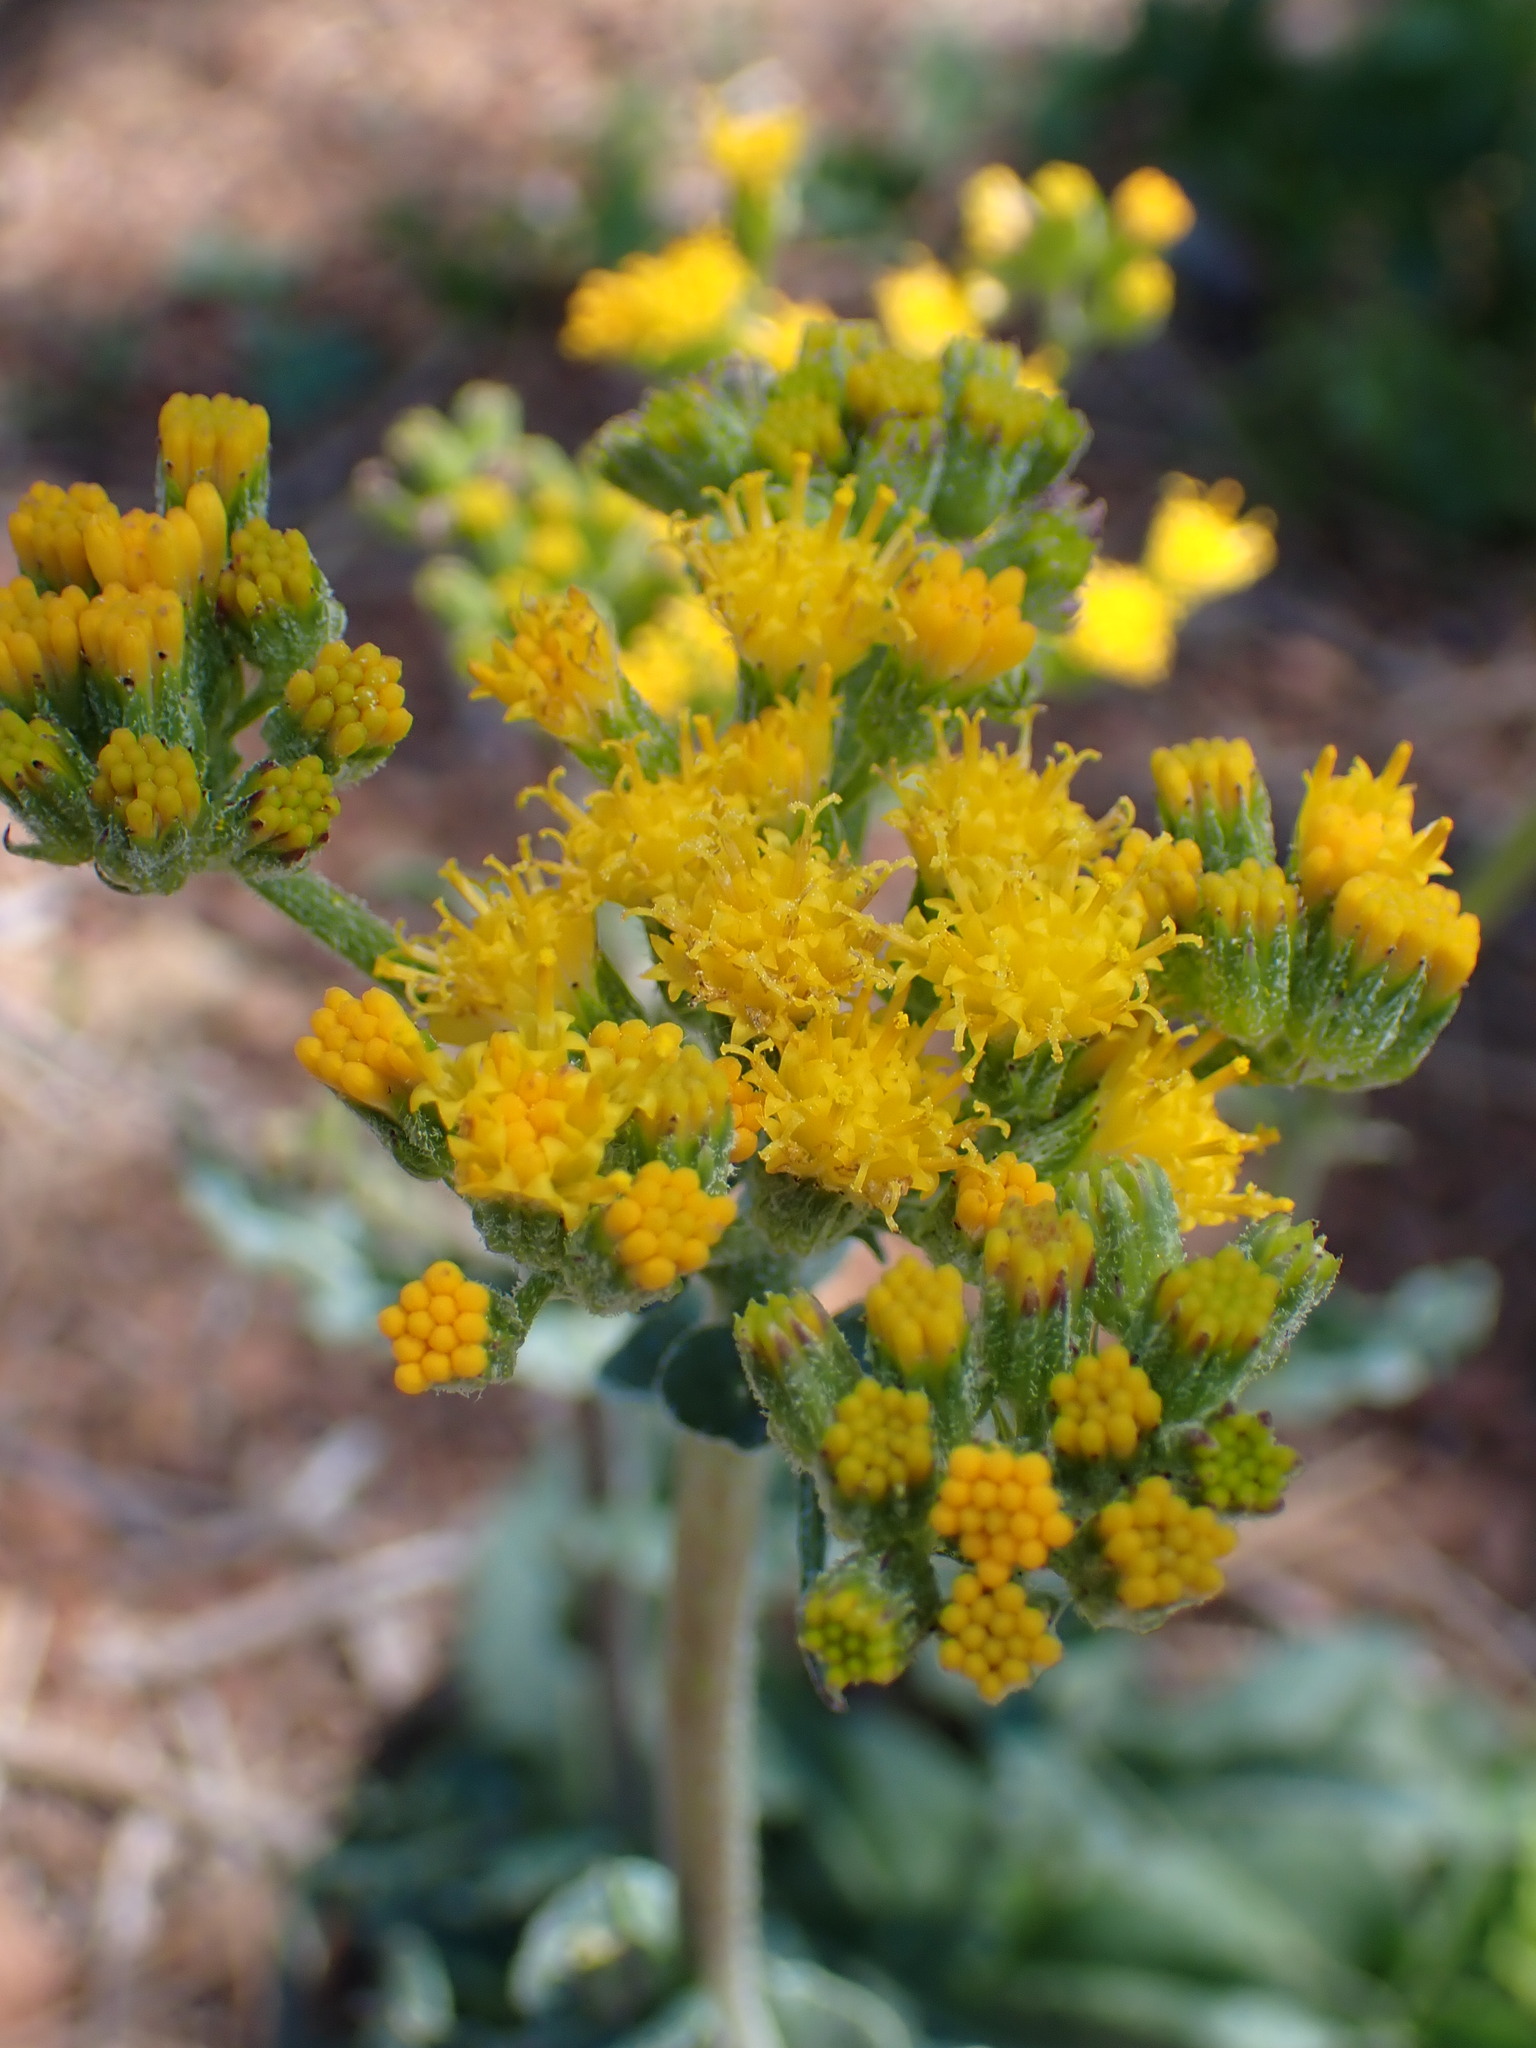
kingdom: Plantae
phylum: Tracheophyta
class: Magnoliopsida
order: Asterales
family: Asteraceae
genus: Senecio
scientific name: Senecio aronicoides
